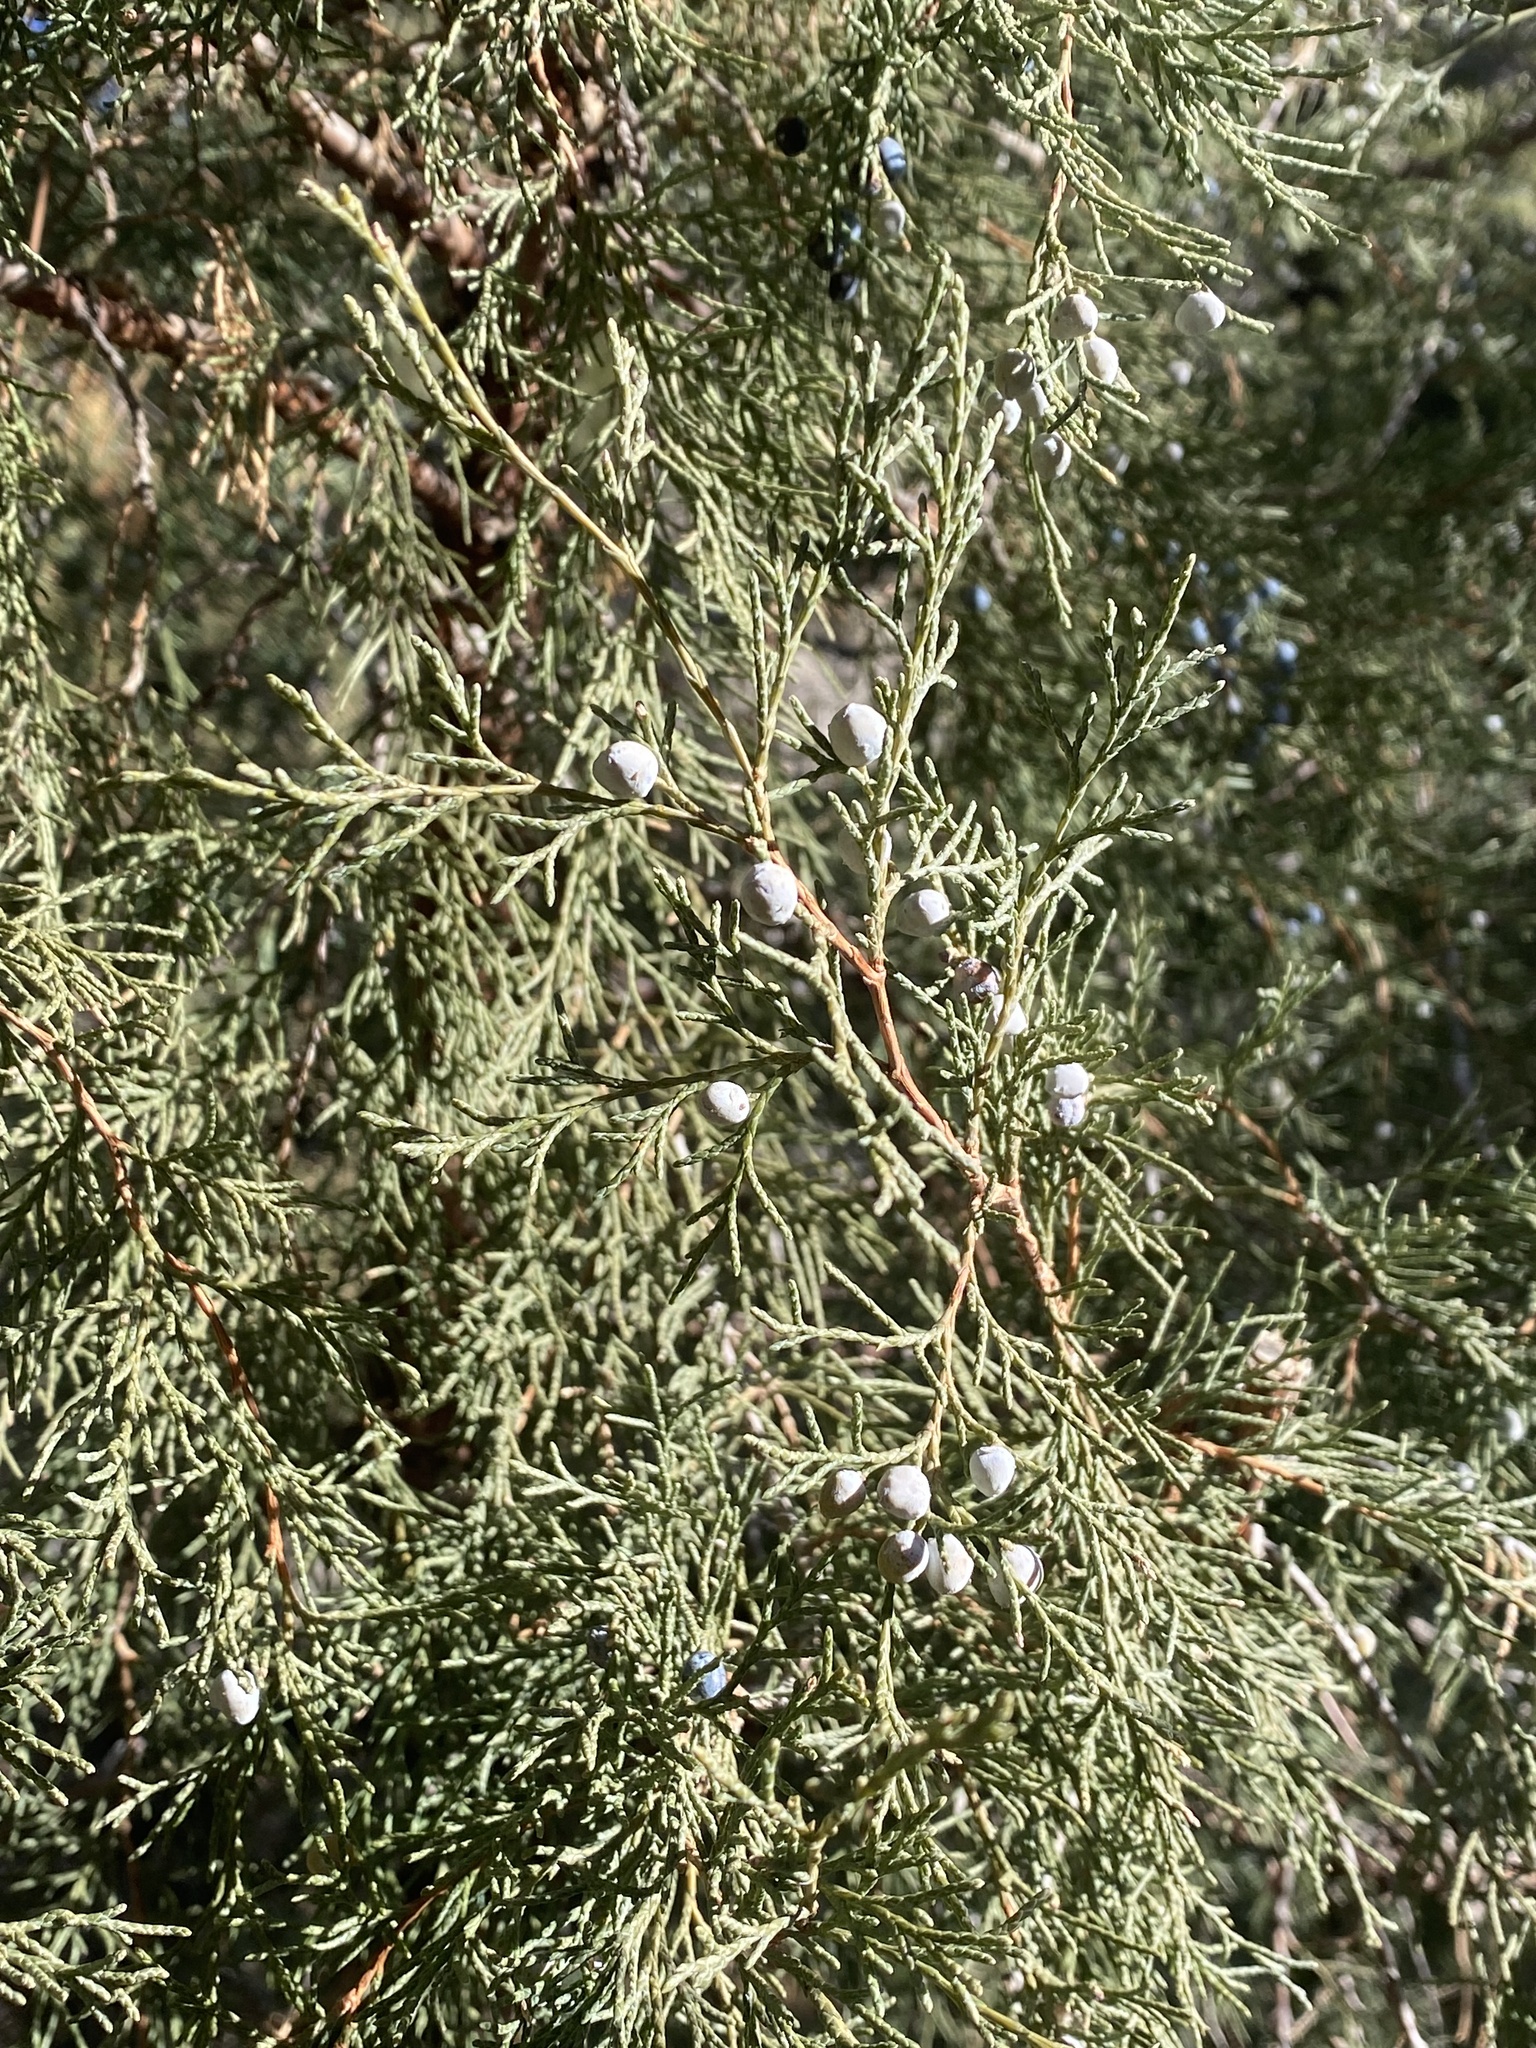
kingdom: Plantae
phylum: Tracheophyta
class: Pinopsida
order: Pinales
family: Cupressaceae
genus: Juniperus
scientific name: Juniperus scopulorum
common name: Rocky mountain juniper
